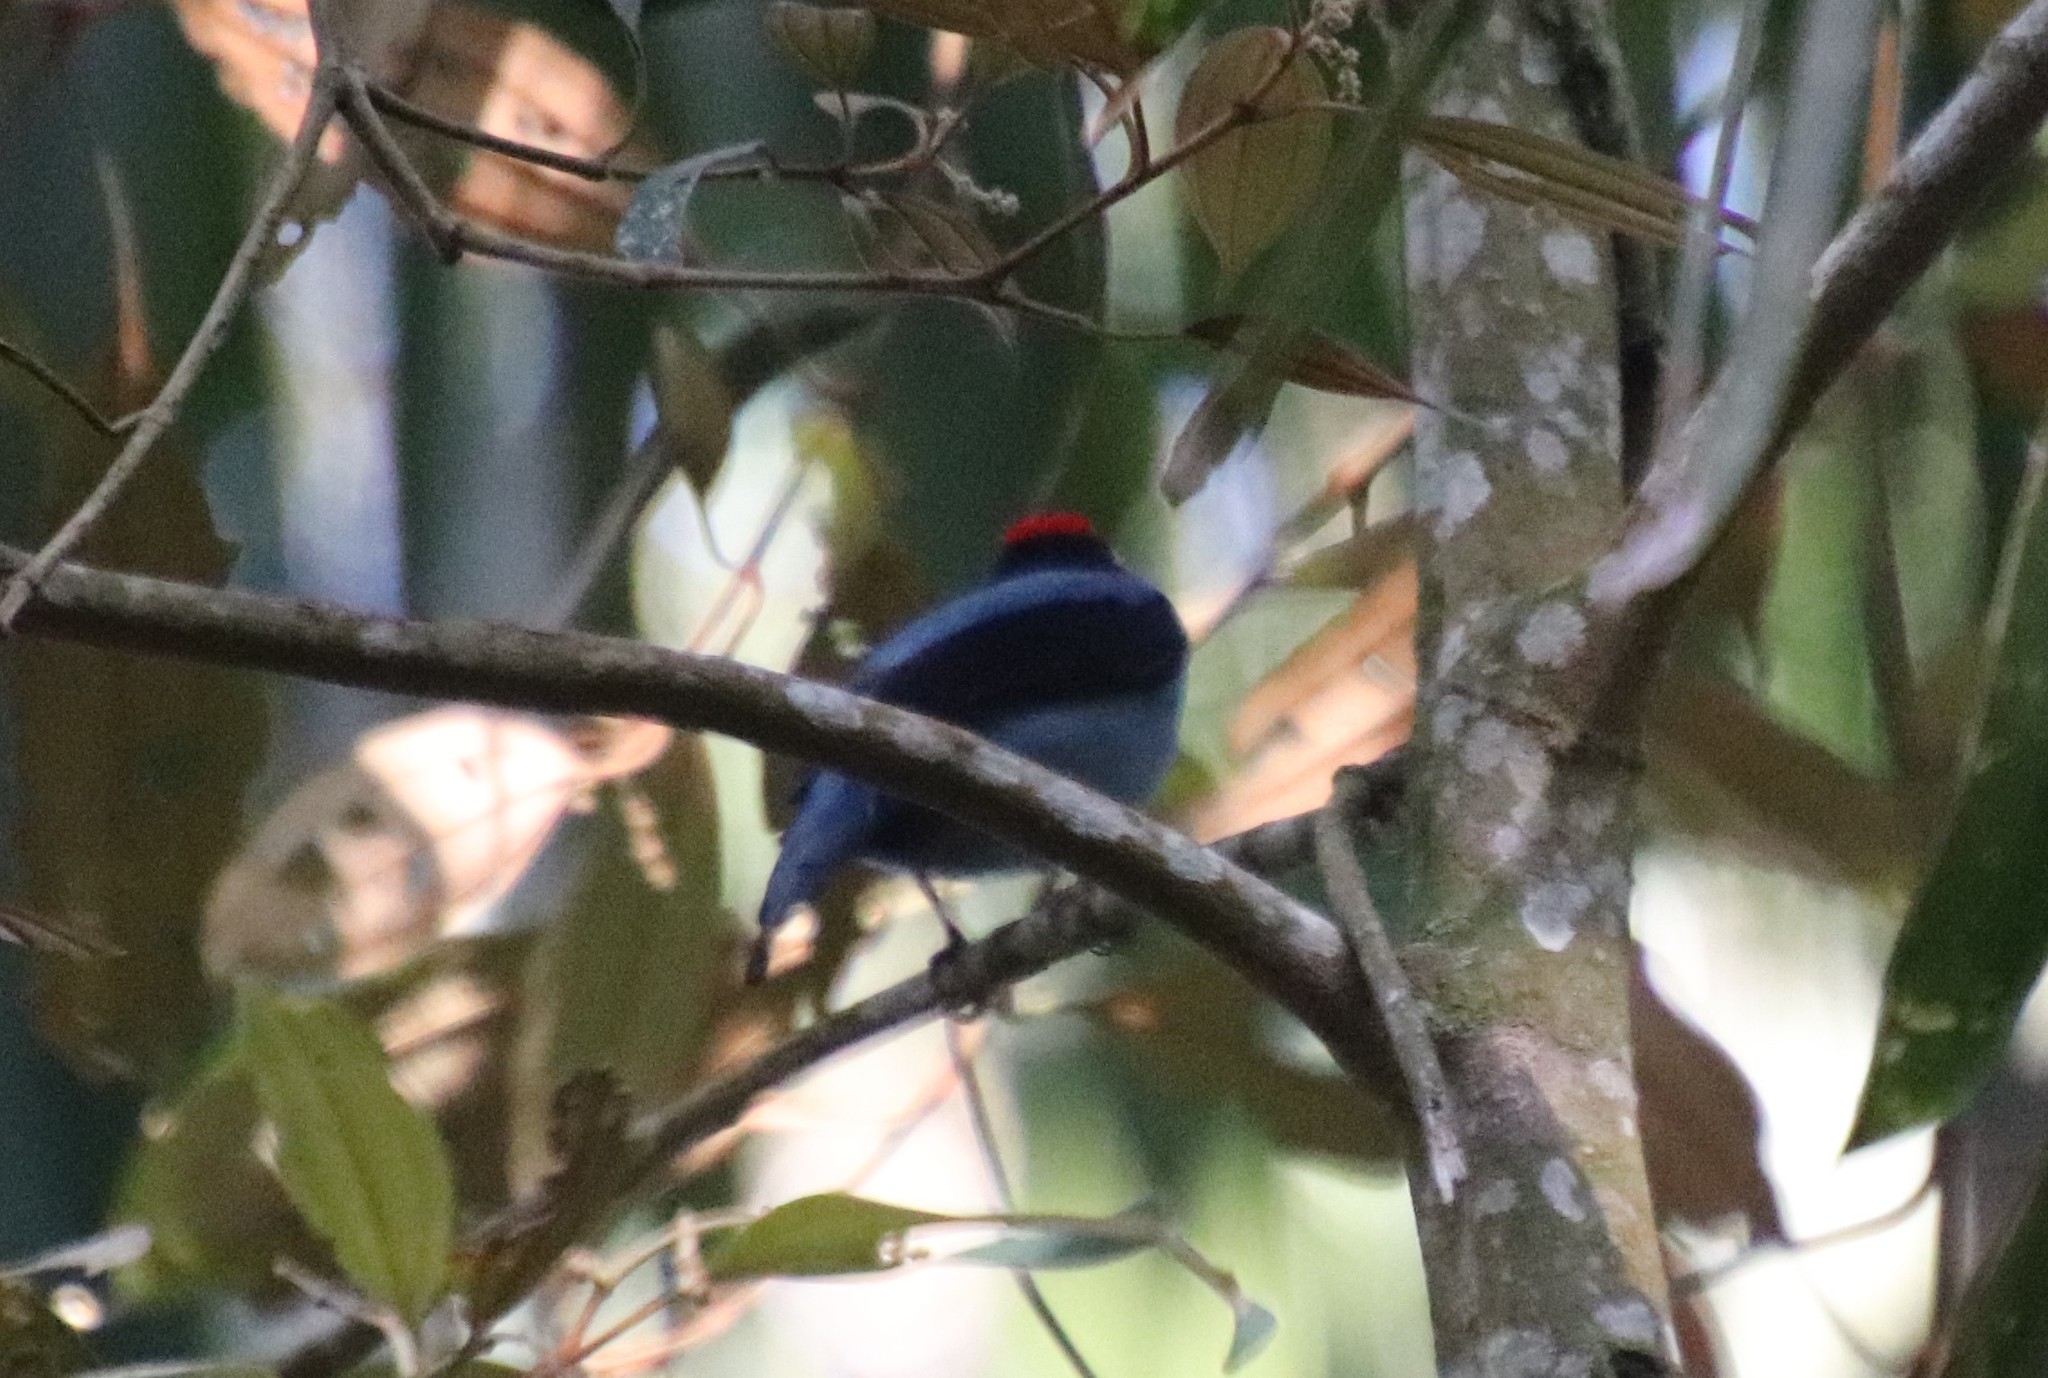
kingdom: Animalia
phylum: Chordata
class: Aves
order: Passeriformes
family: Pipridae
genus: Chiroxiphia
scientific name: Chiroxiphia caudata
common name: Blue manakin
